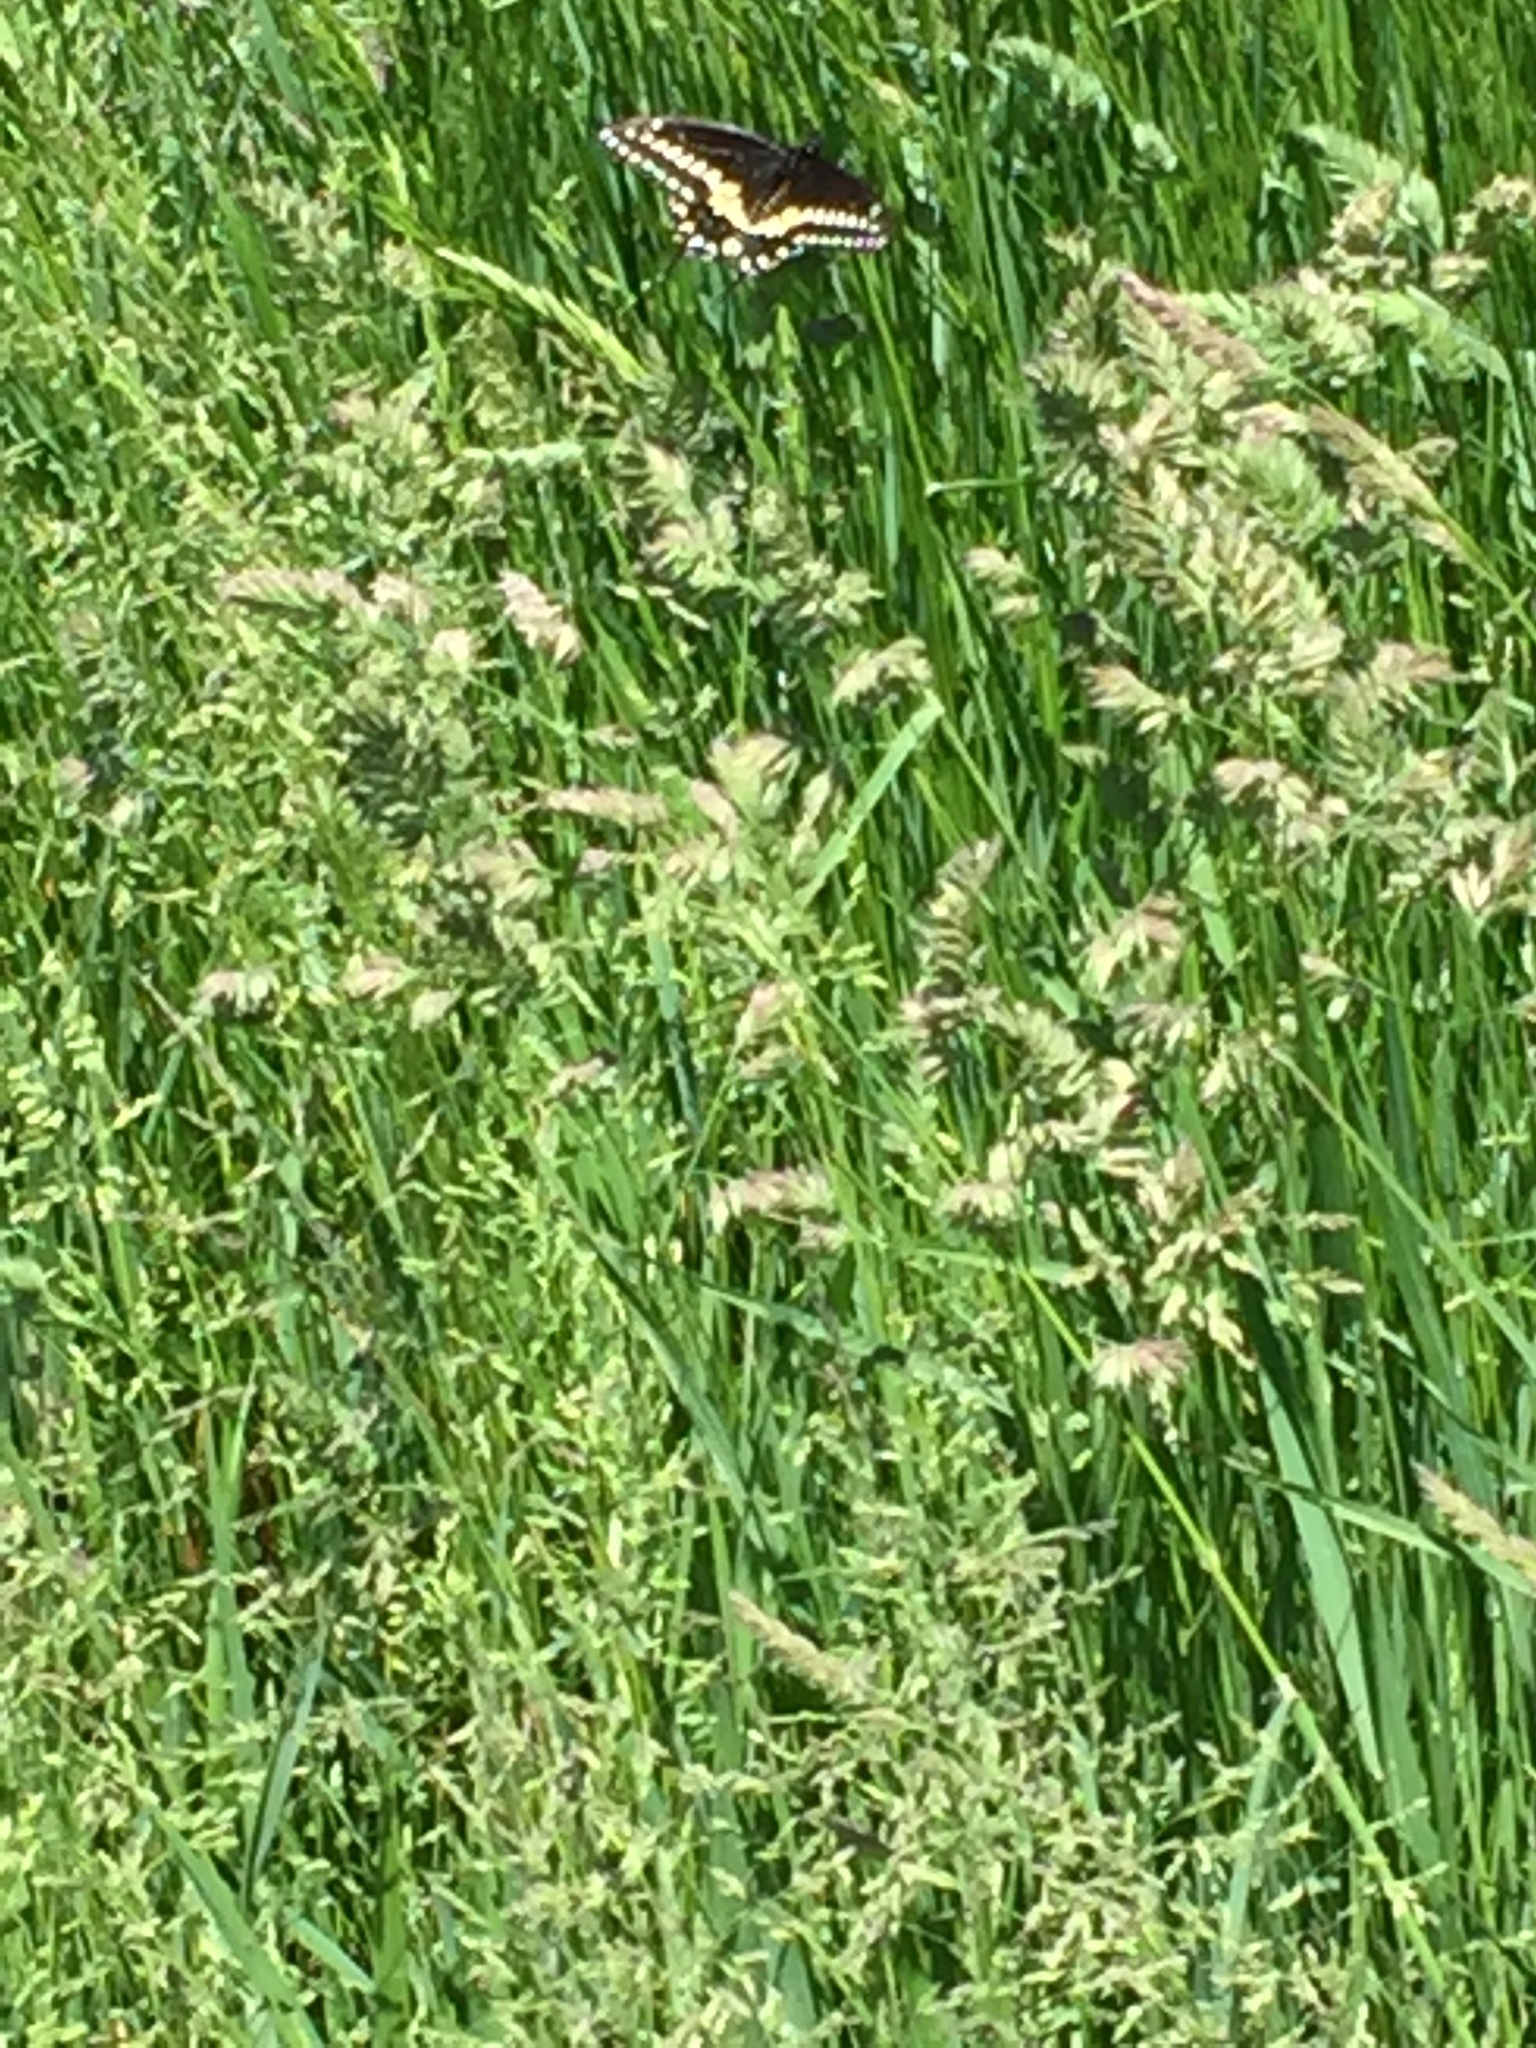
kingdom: Animalia
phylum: Arthropoda
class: Insecta
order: Lepidoptera
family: Papilionidae
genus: Papilio
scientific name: Papilio polyxenes
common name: Black swallowtail
